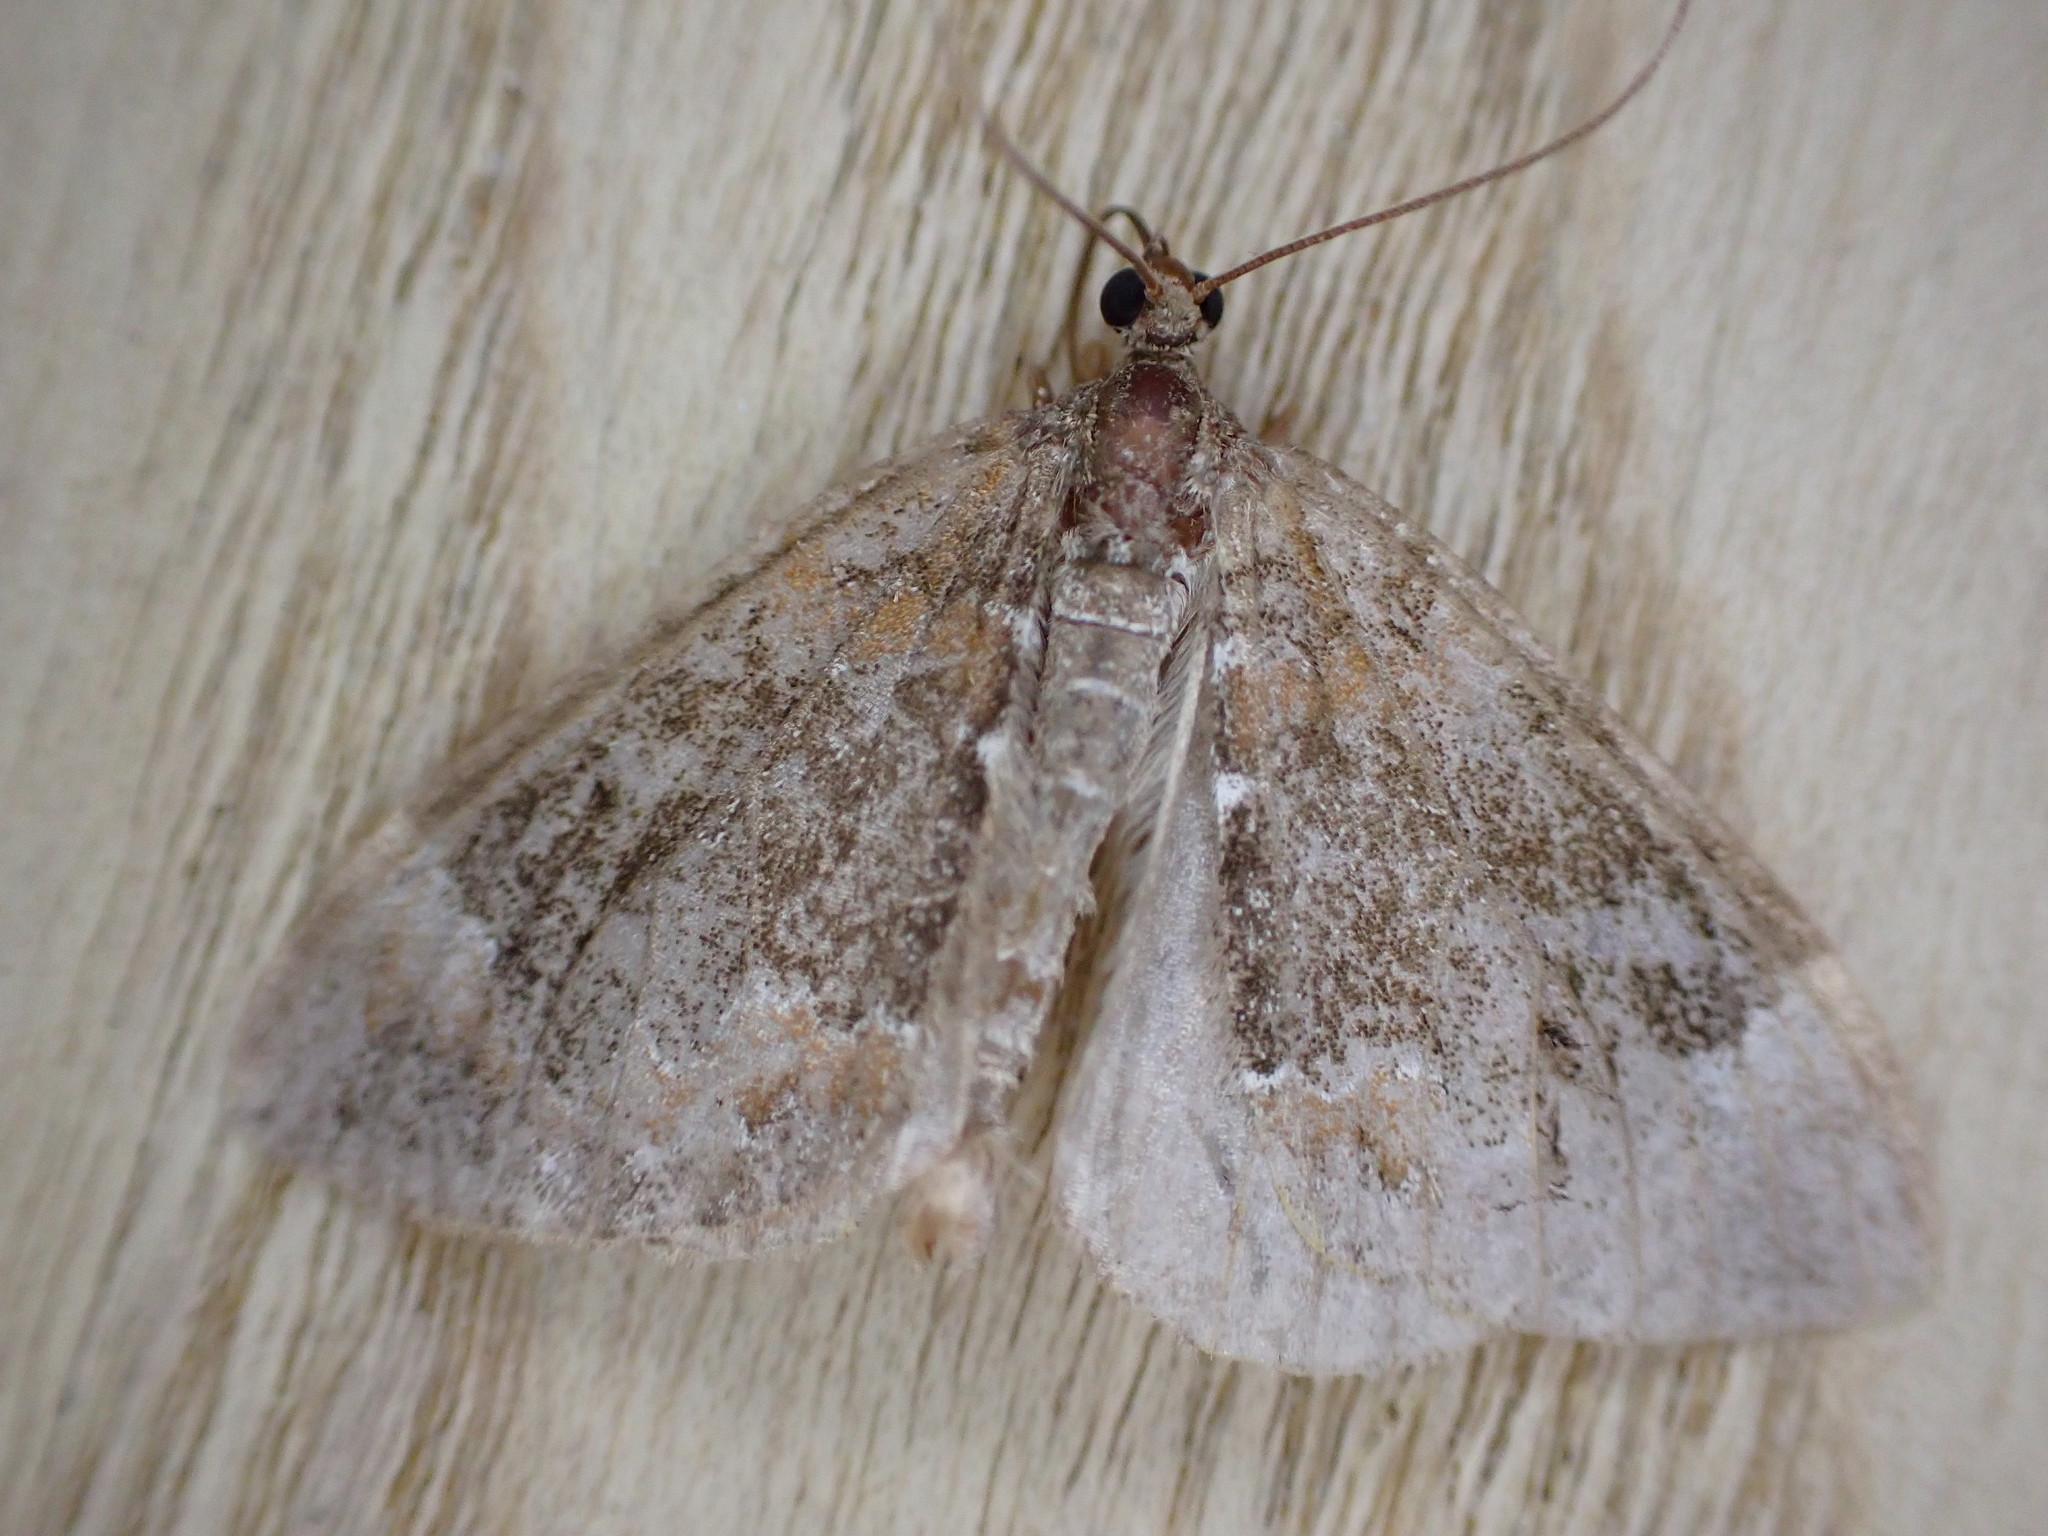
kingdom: Animalia
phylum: Arthropoda
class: Insecta
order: Lepidoptera
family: Geometridae
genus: Dysstroma
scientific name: Dysstroma truncata
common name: Common marbled carpet
